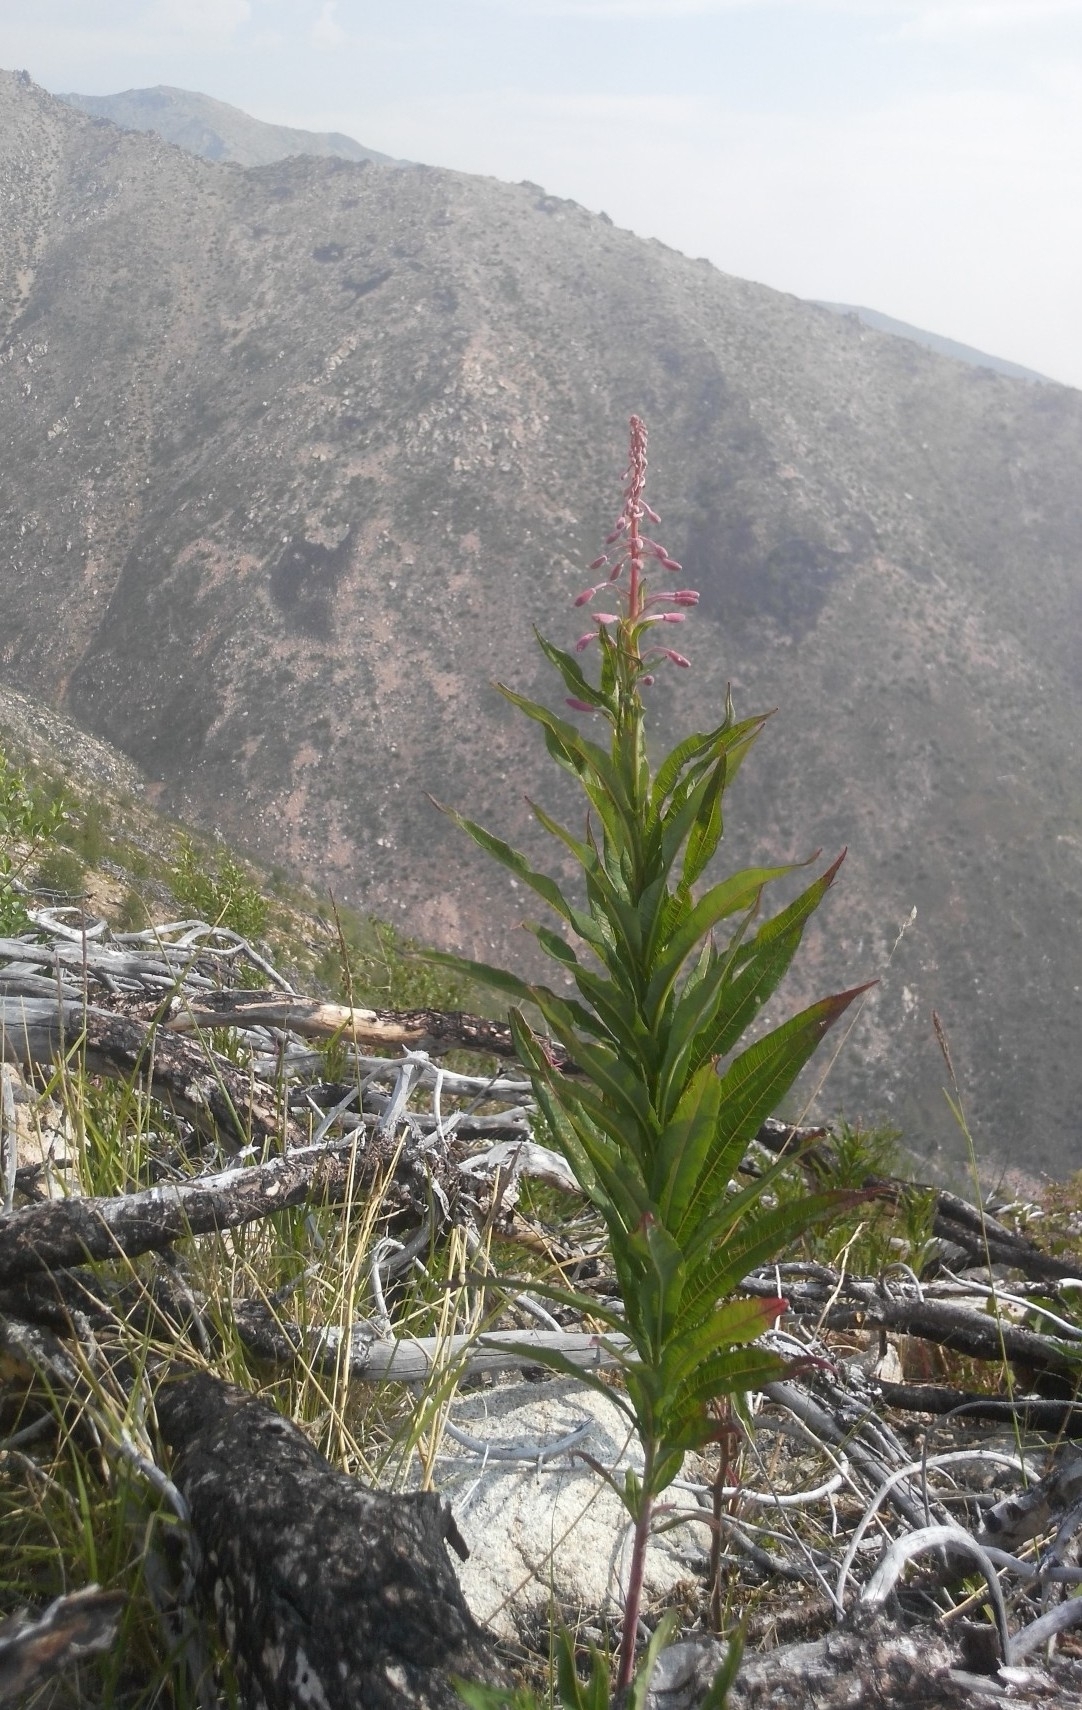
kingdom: Plantae
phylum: Tracheophyta
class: Magnoliopsida
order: Myrtales
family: Onagraceae
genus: Chamaenerion
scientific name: Chamaenerion angustifolium
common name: Fireweed
